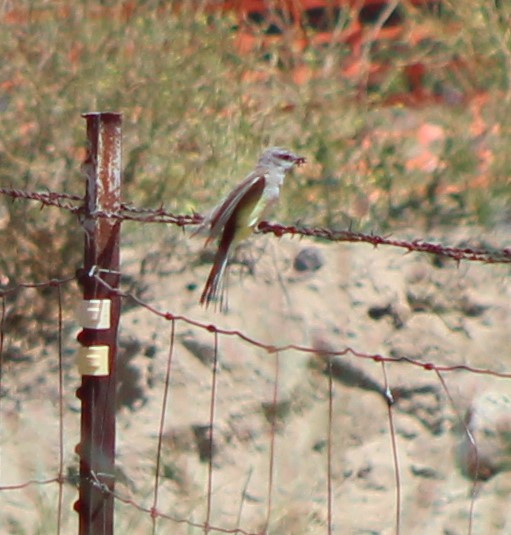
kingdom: Animalia
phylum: Chordata
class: Aves
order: Passeriformes
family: Tyrannidae
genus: Tyrannus
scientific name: Tyrannus verticalis
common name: Western kingbird
